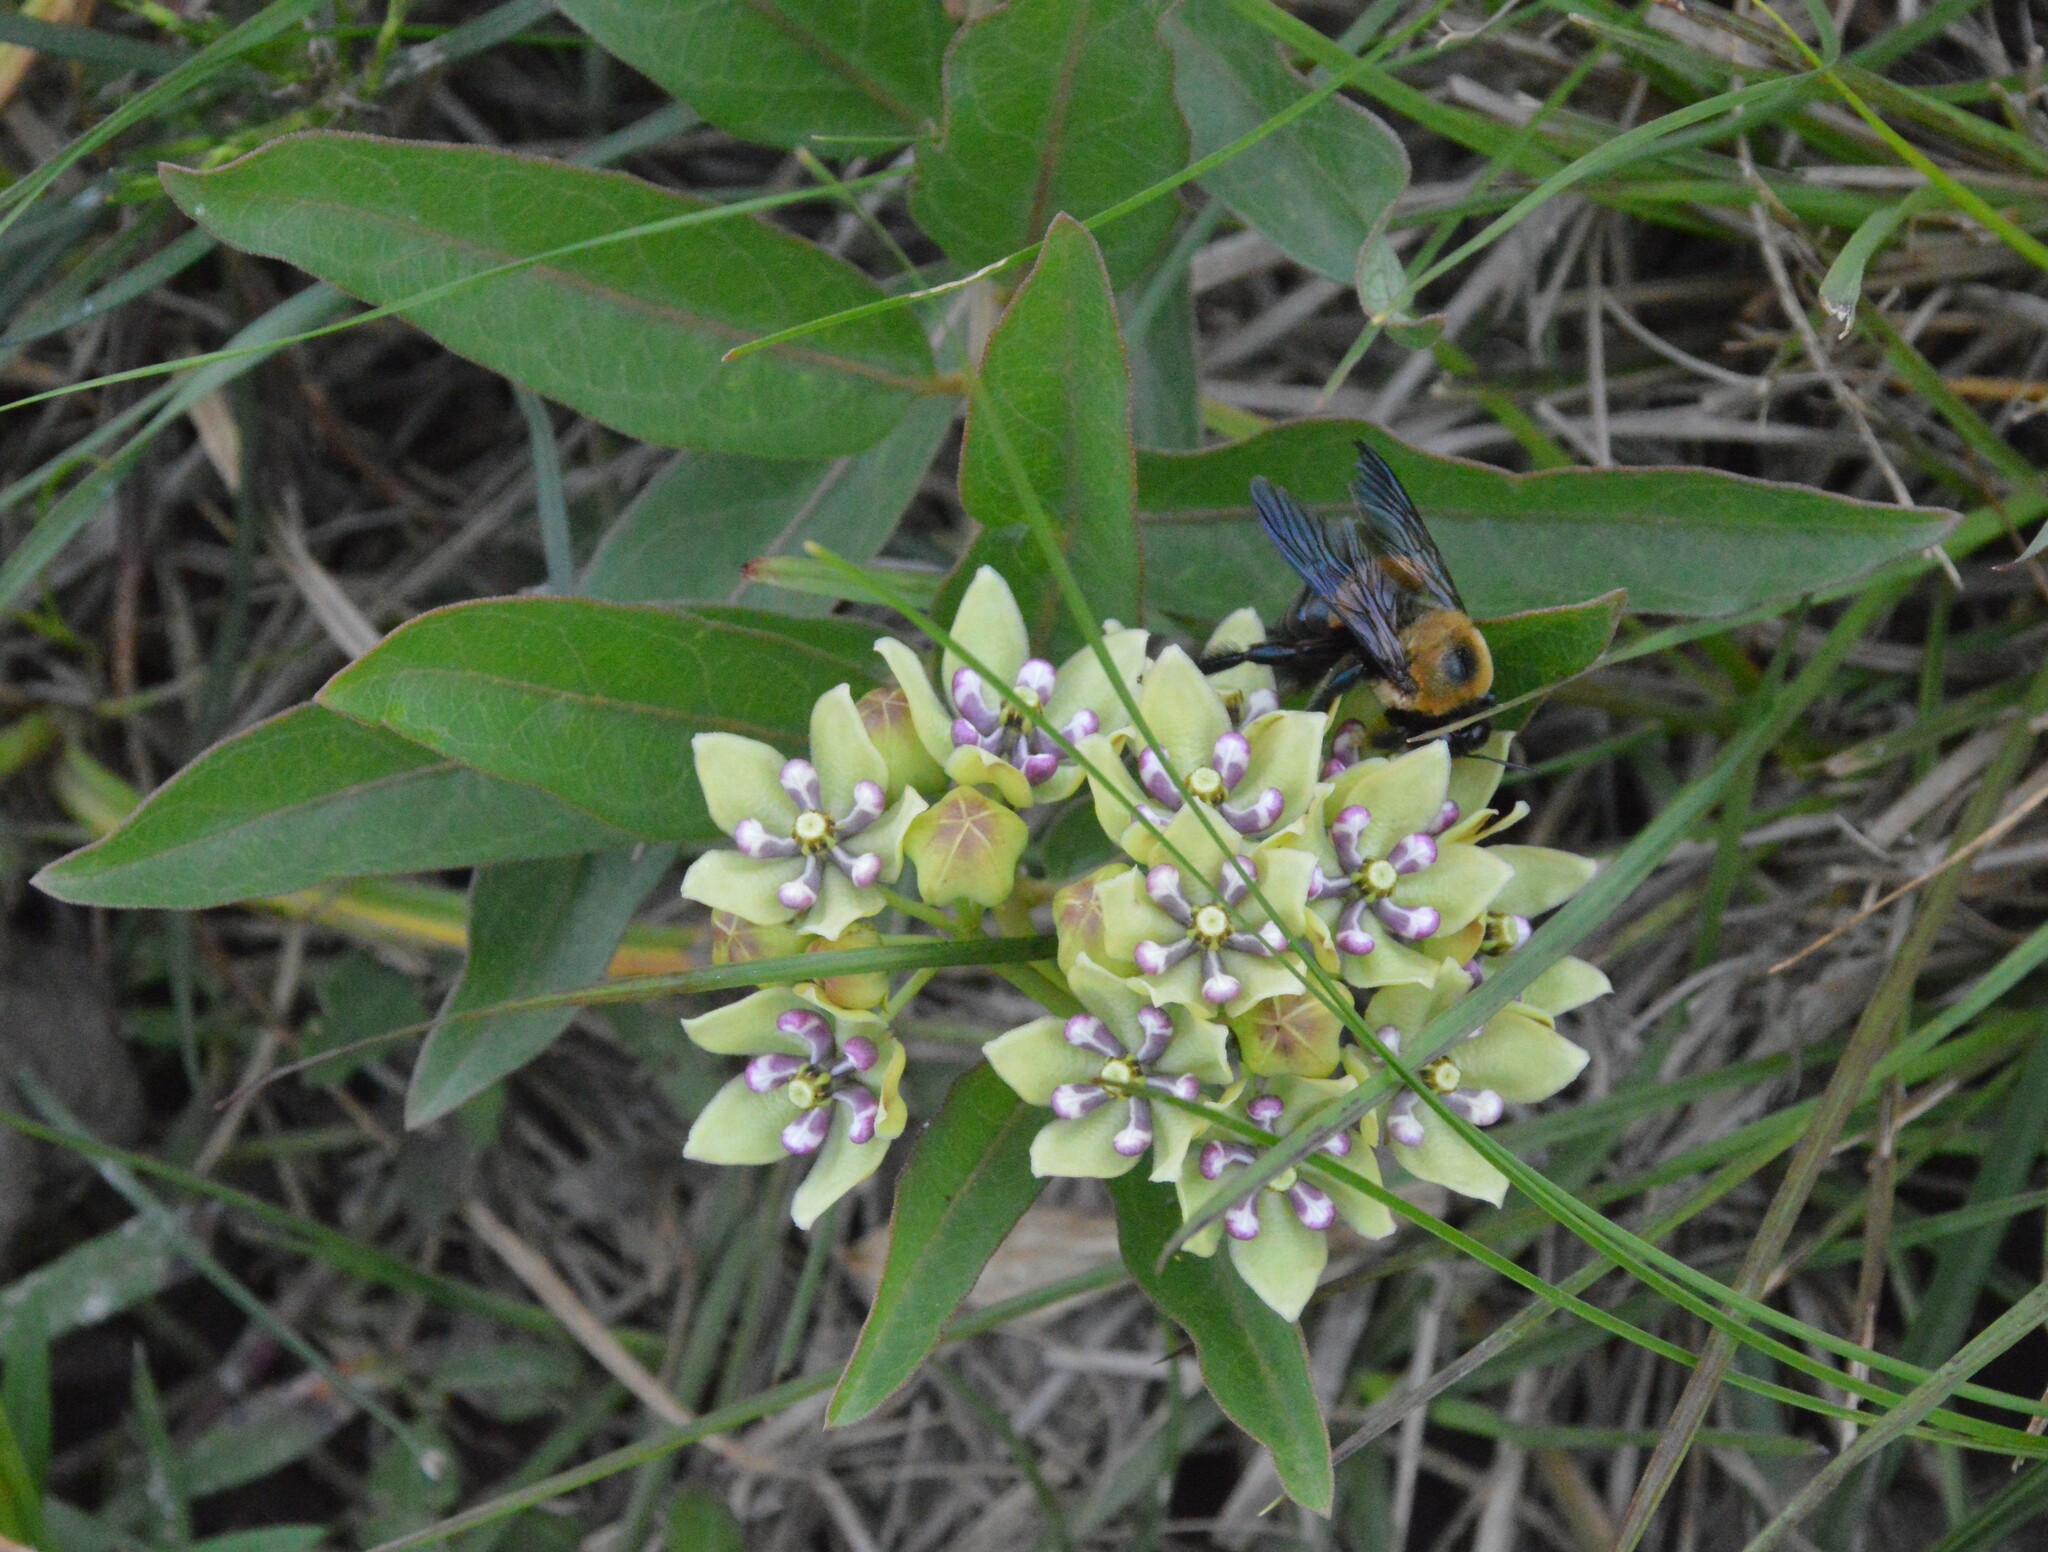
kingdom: Plantae
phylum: Tracheophyta
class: Magnoliopsida
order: Gentianales
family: Apocynaceae
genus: Asclepias
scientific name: Asclepias viridis
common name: Antelope-horns
